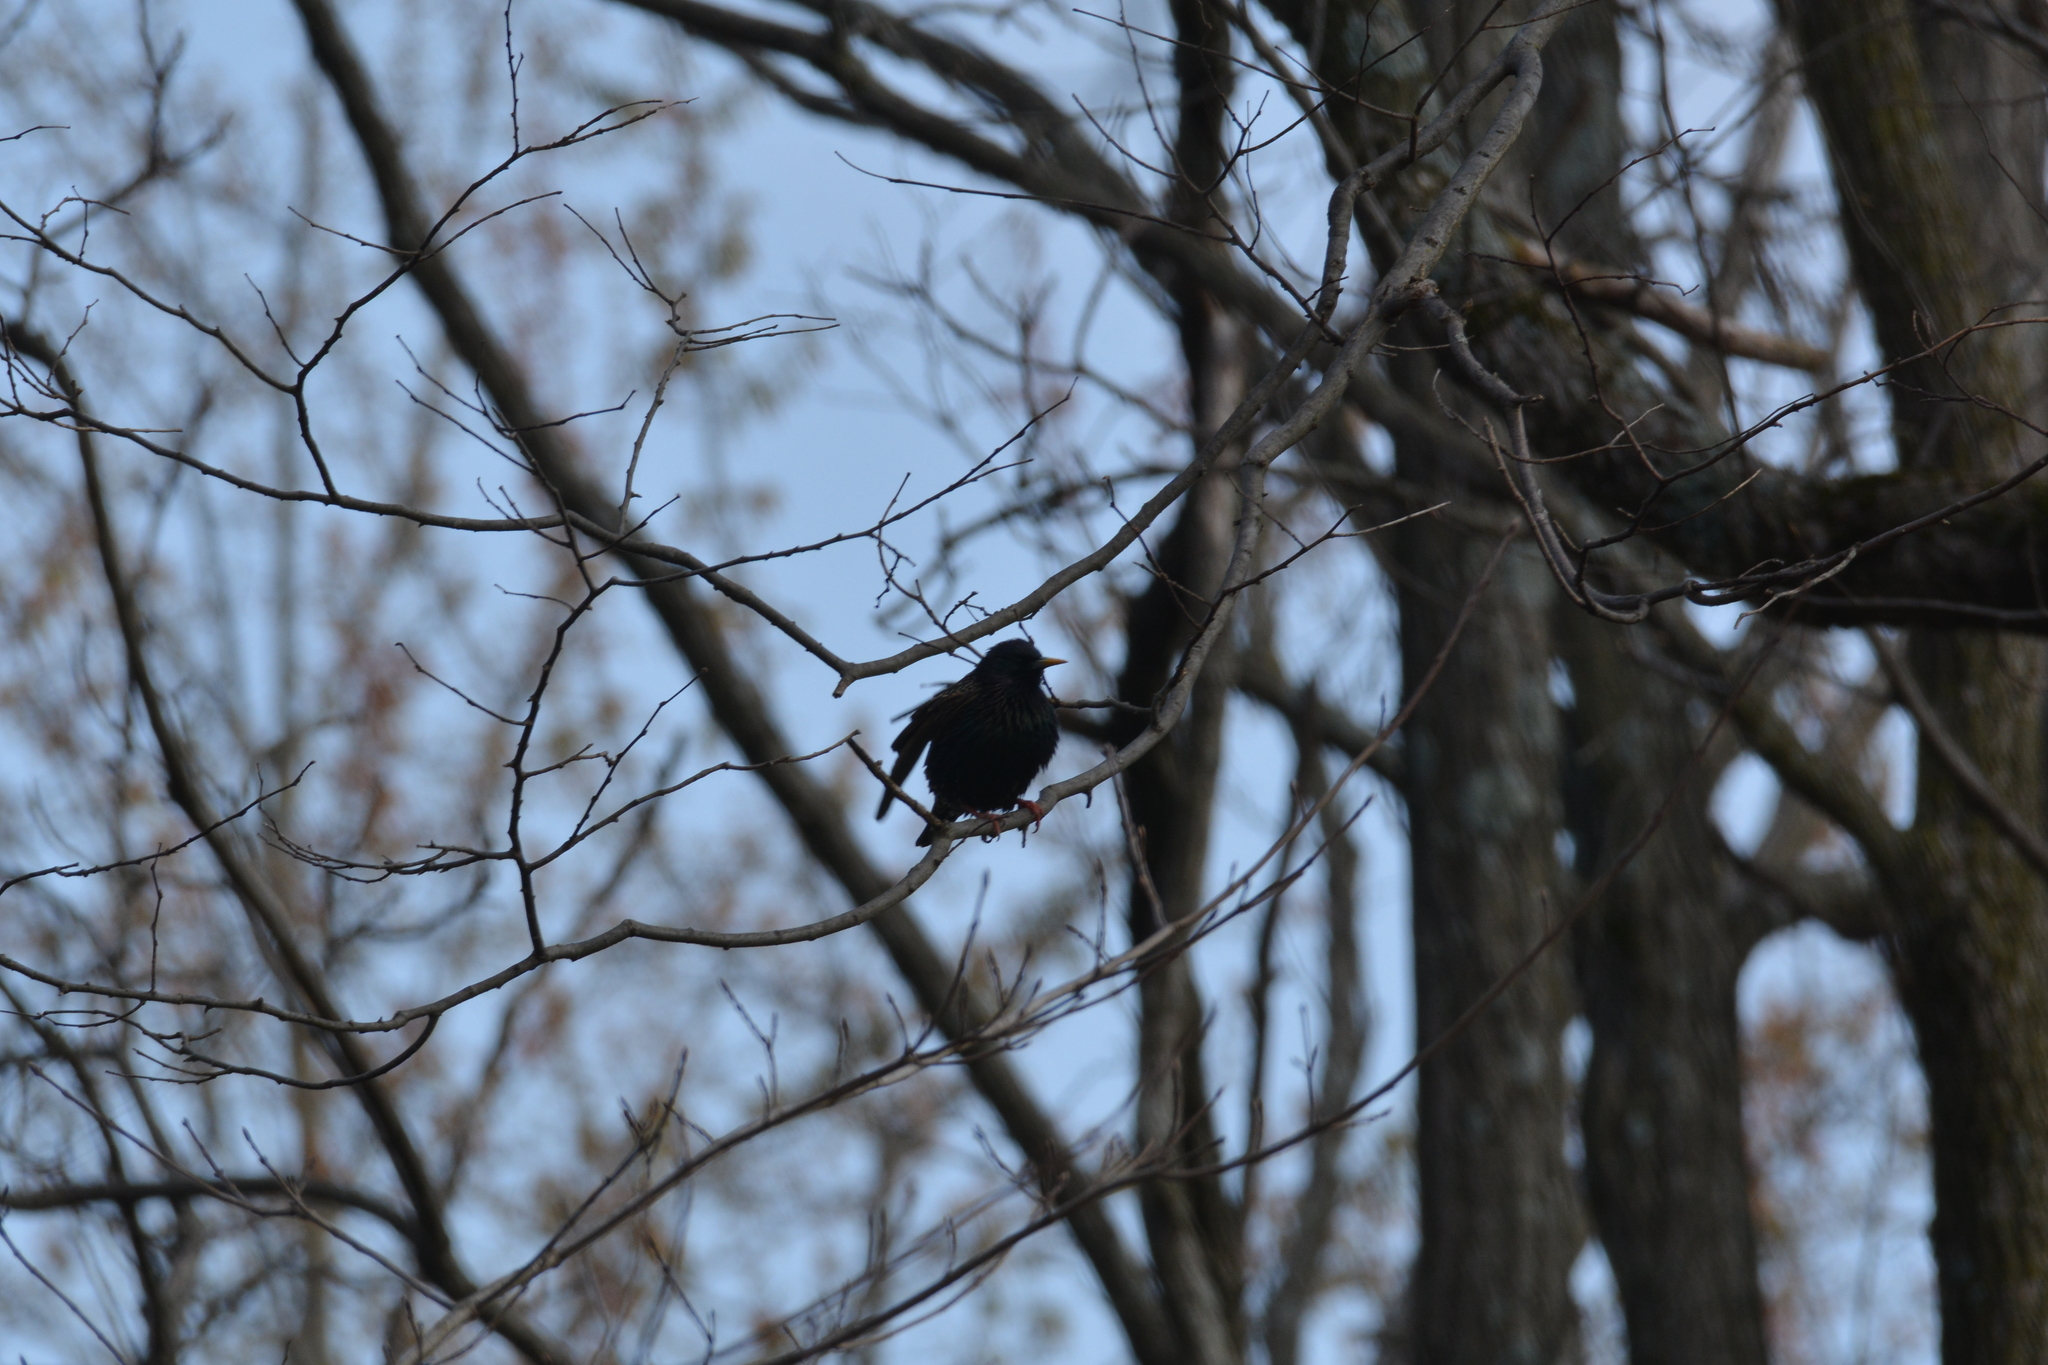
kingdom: Animalia
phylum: Chordata
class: Aves
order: Passeriformes
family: Sturnidae
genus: Sturnus
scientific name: Sturnus vulgaris
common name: Common starling
